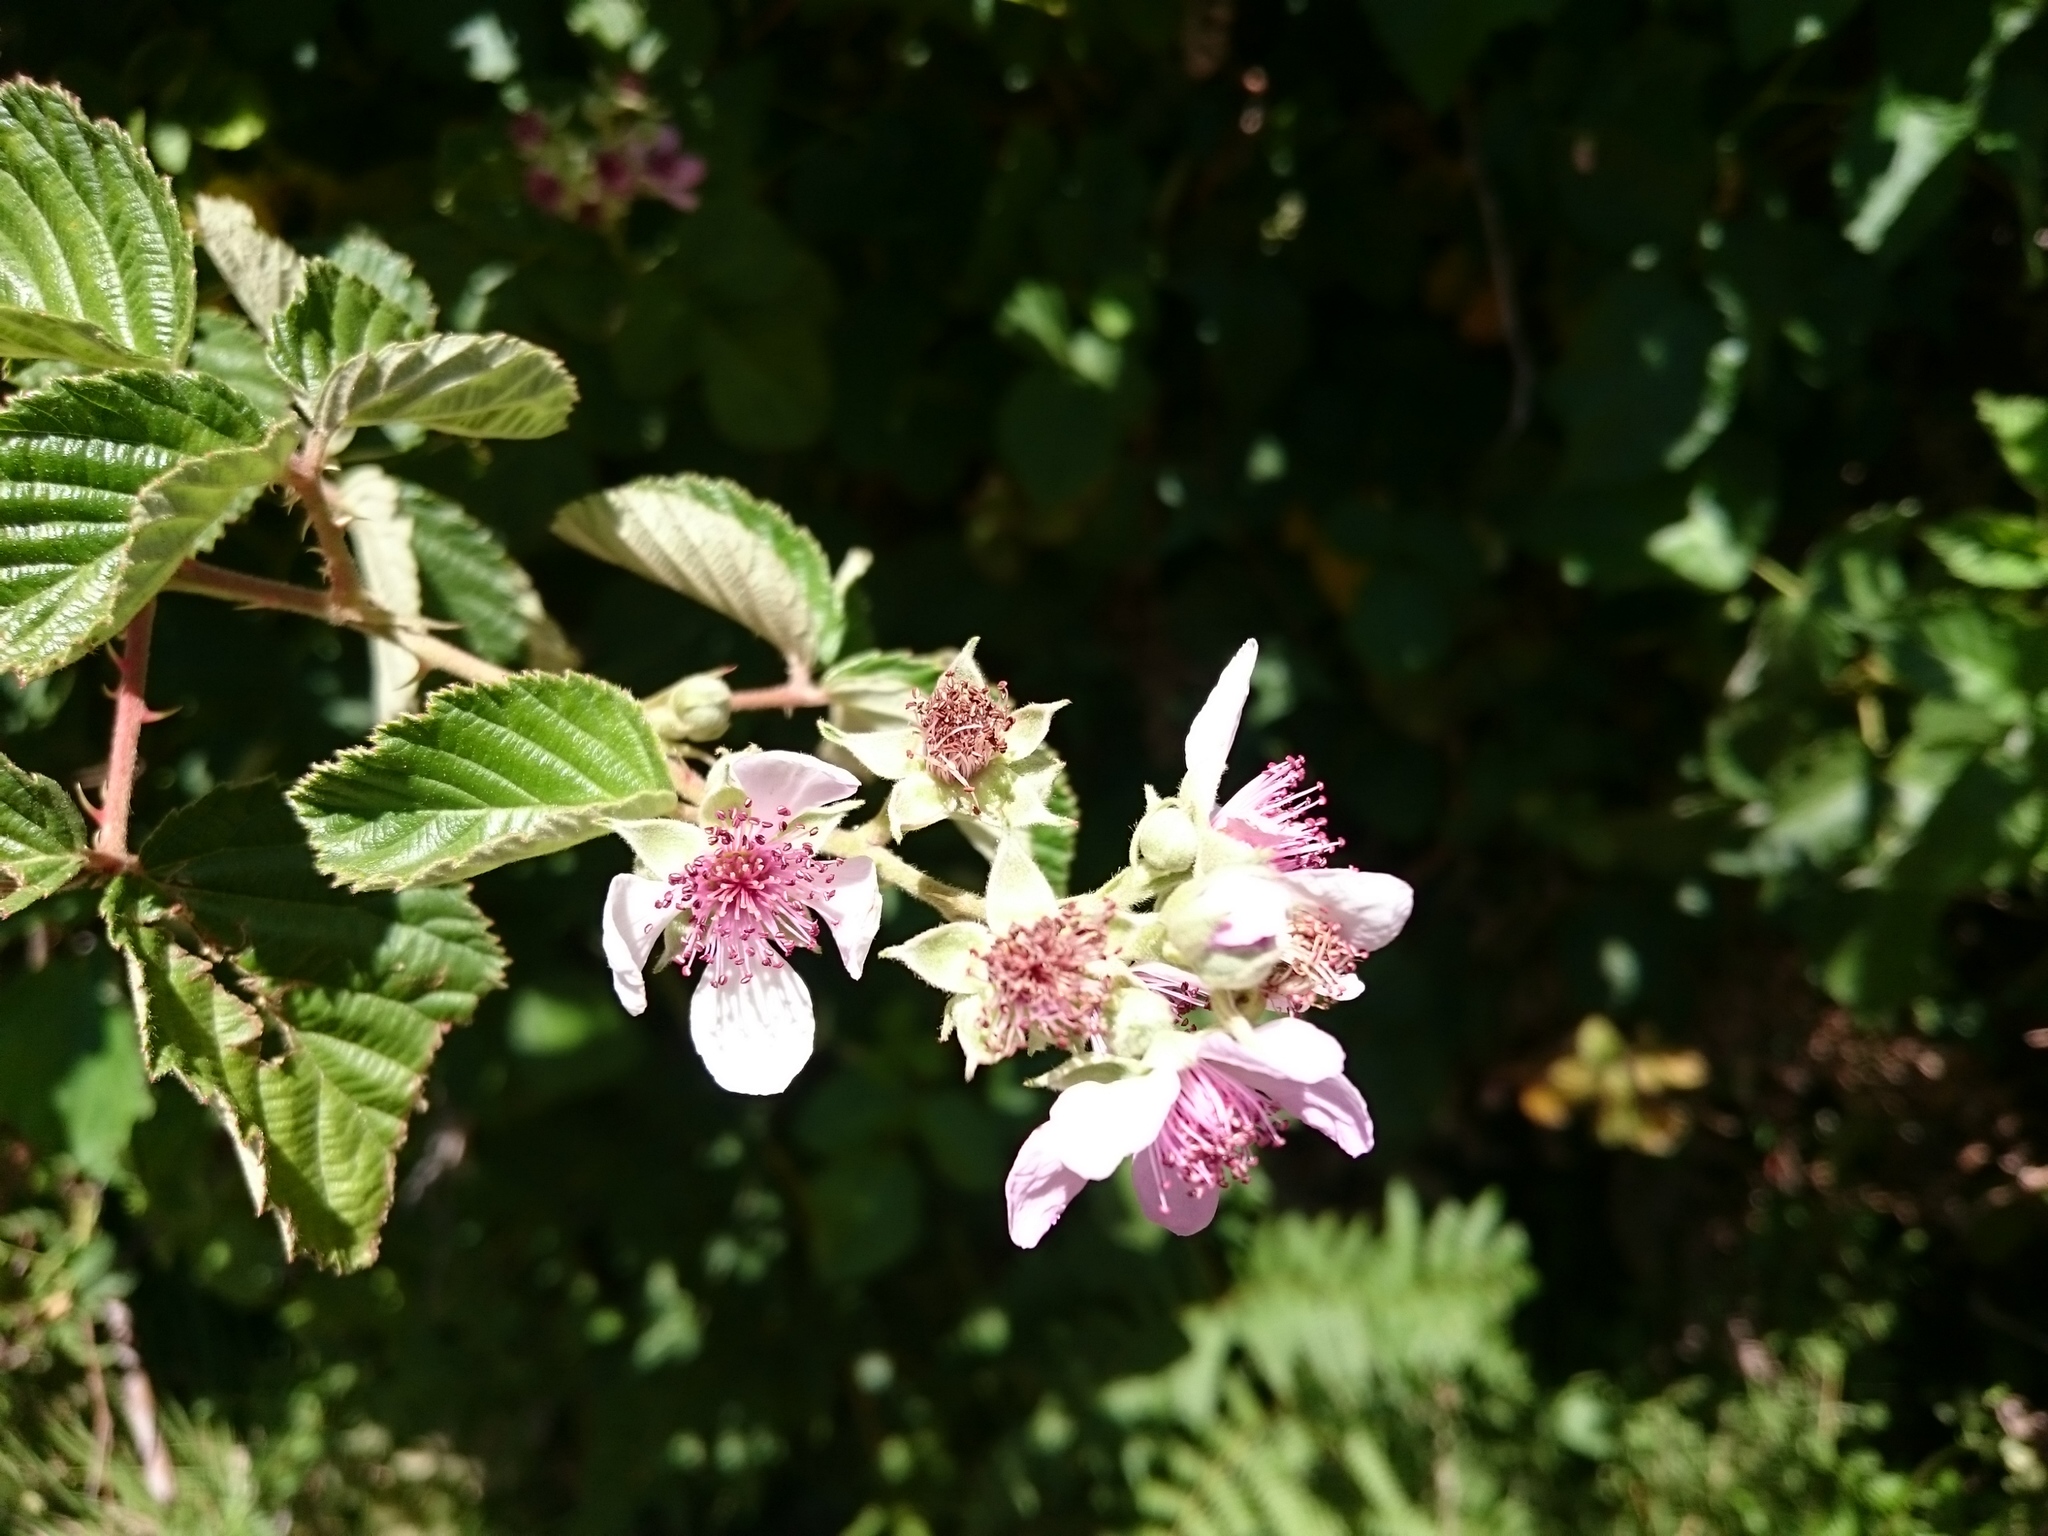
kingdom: Plantae
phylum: Tracheophyta
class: Magnoliopsida
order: Rosales
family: Rosaceae
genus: Rubus
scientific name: Rubus rigidus
